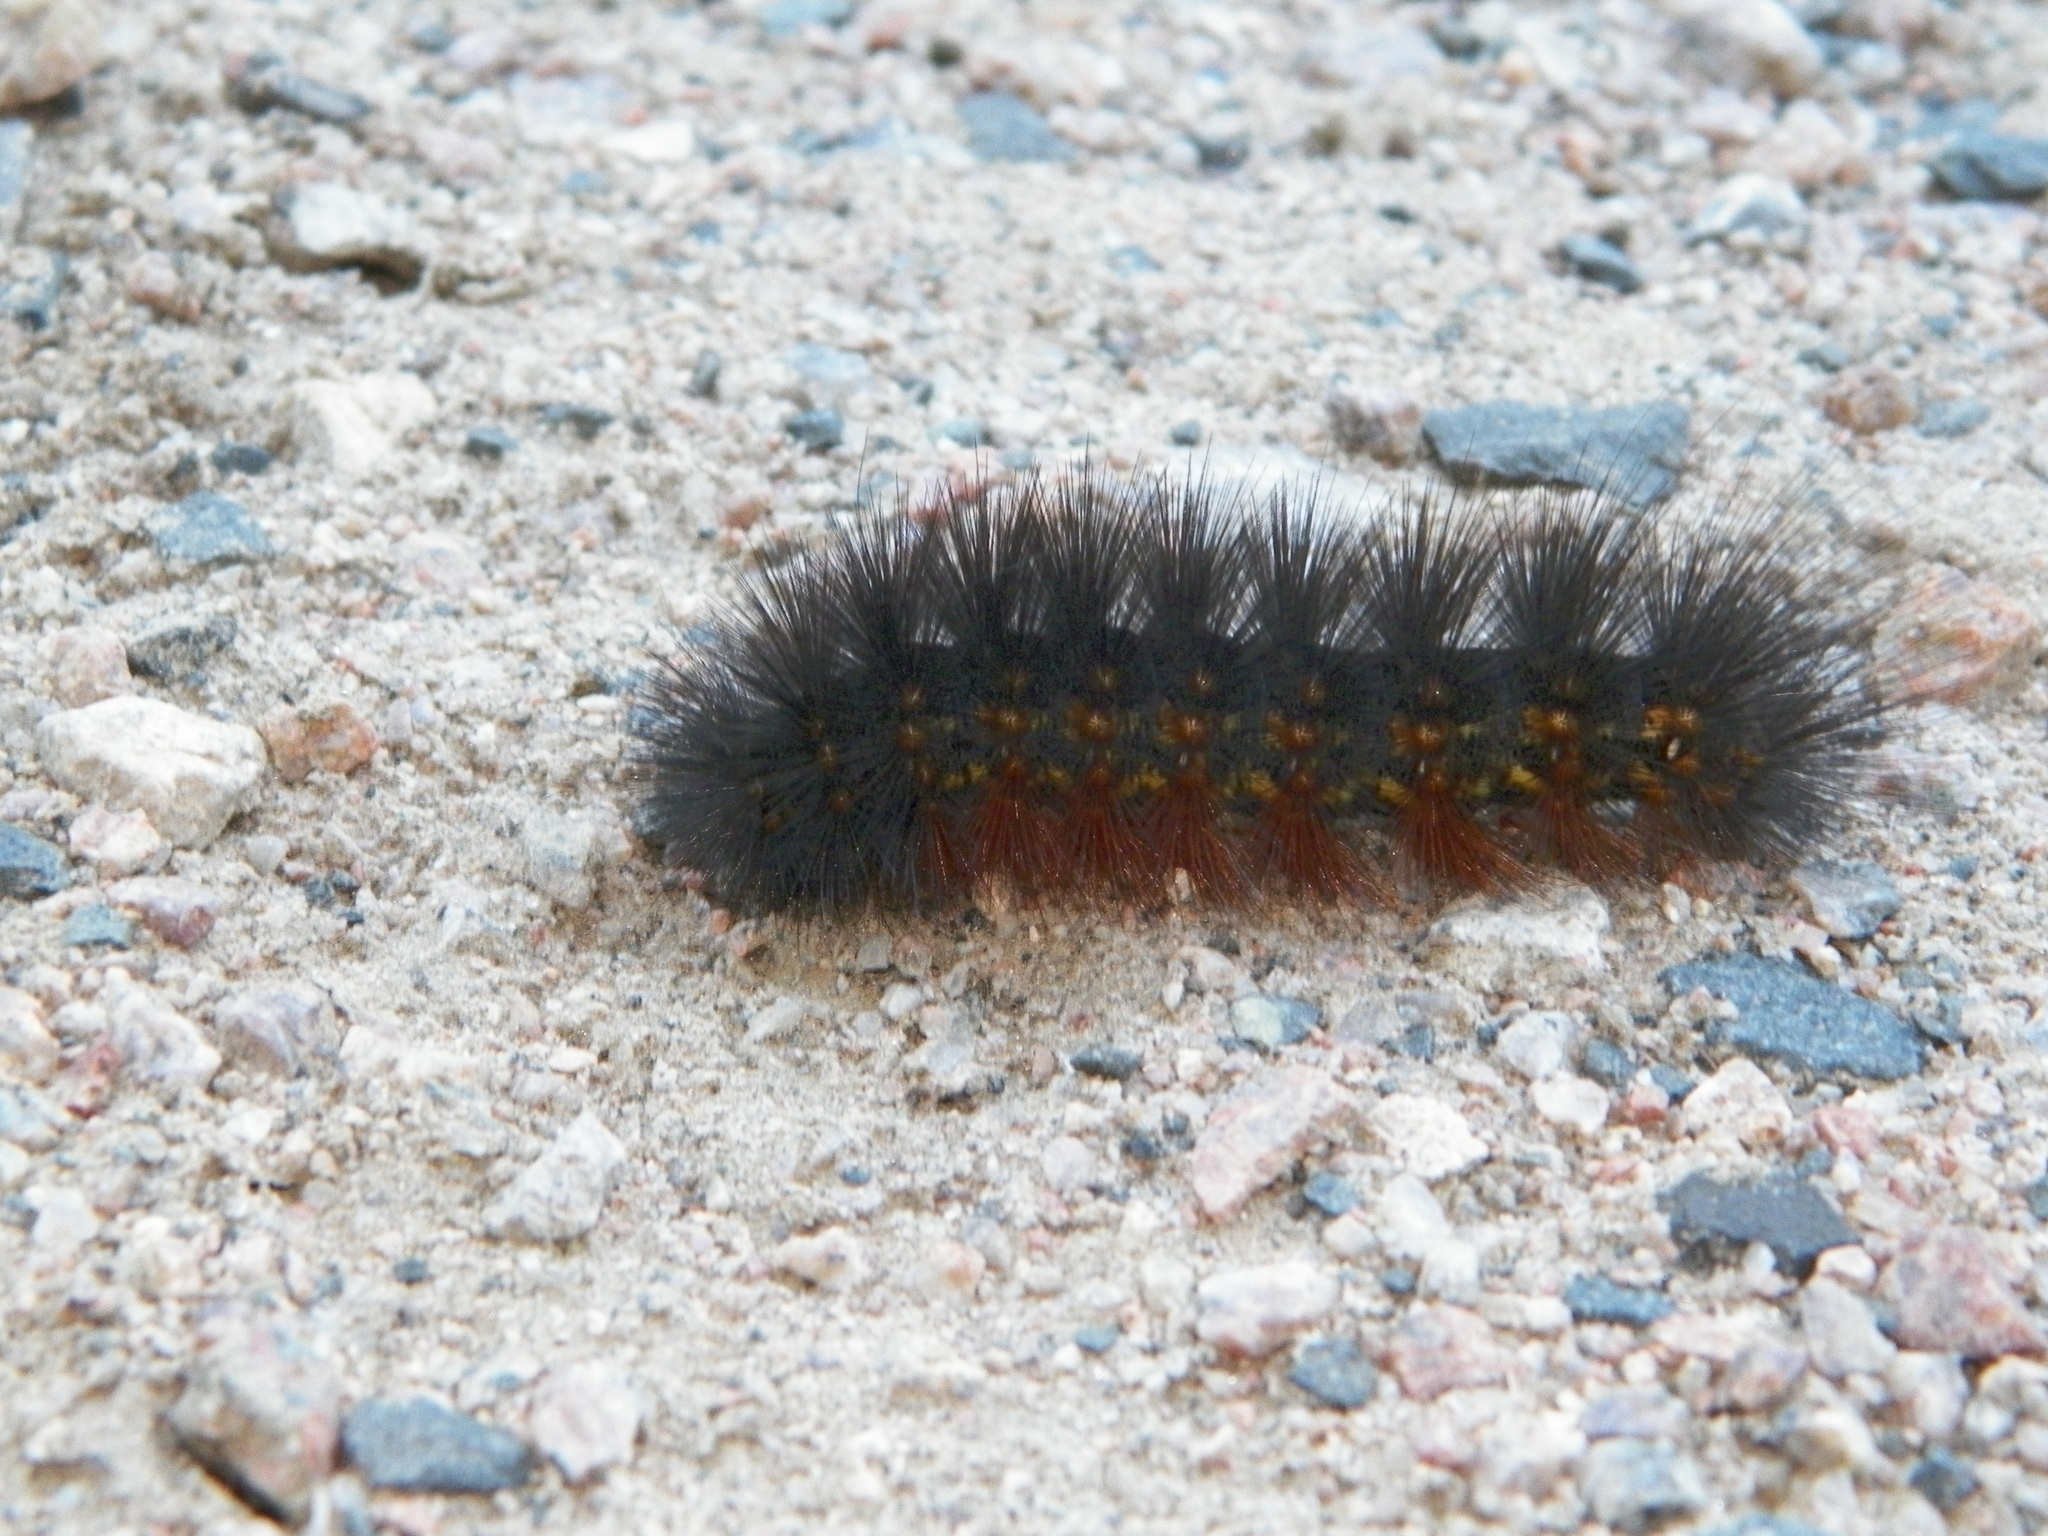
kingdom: Animalia
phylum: Arthropoda
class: Insecta
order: Lepidoptera
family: Erebidae
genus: Estigmene
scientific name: Estigmene acrea
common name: Salt marsh moth
